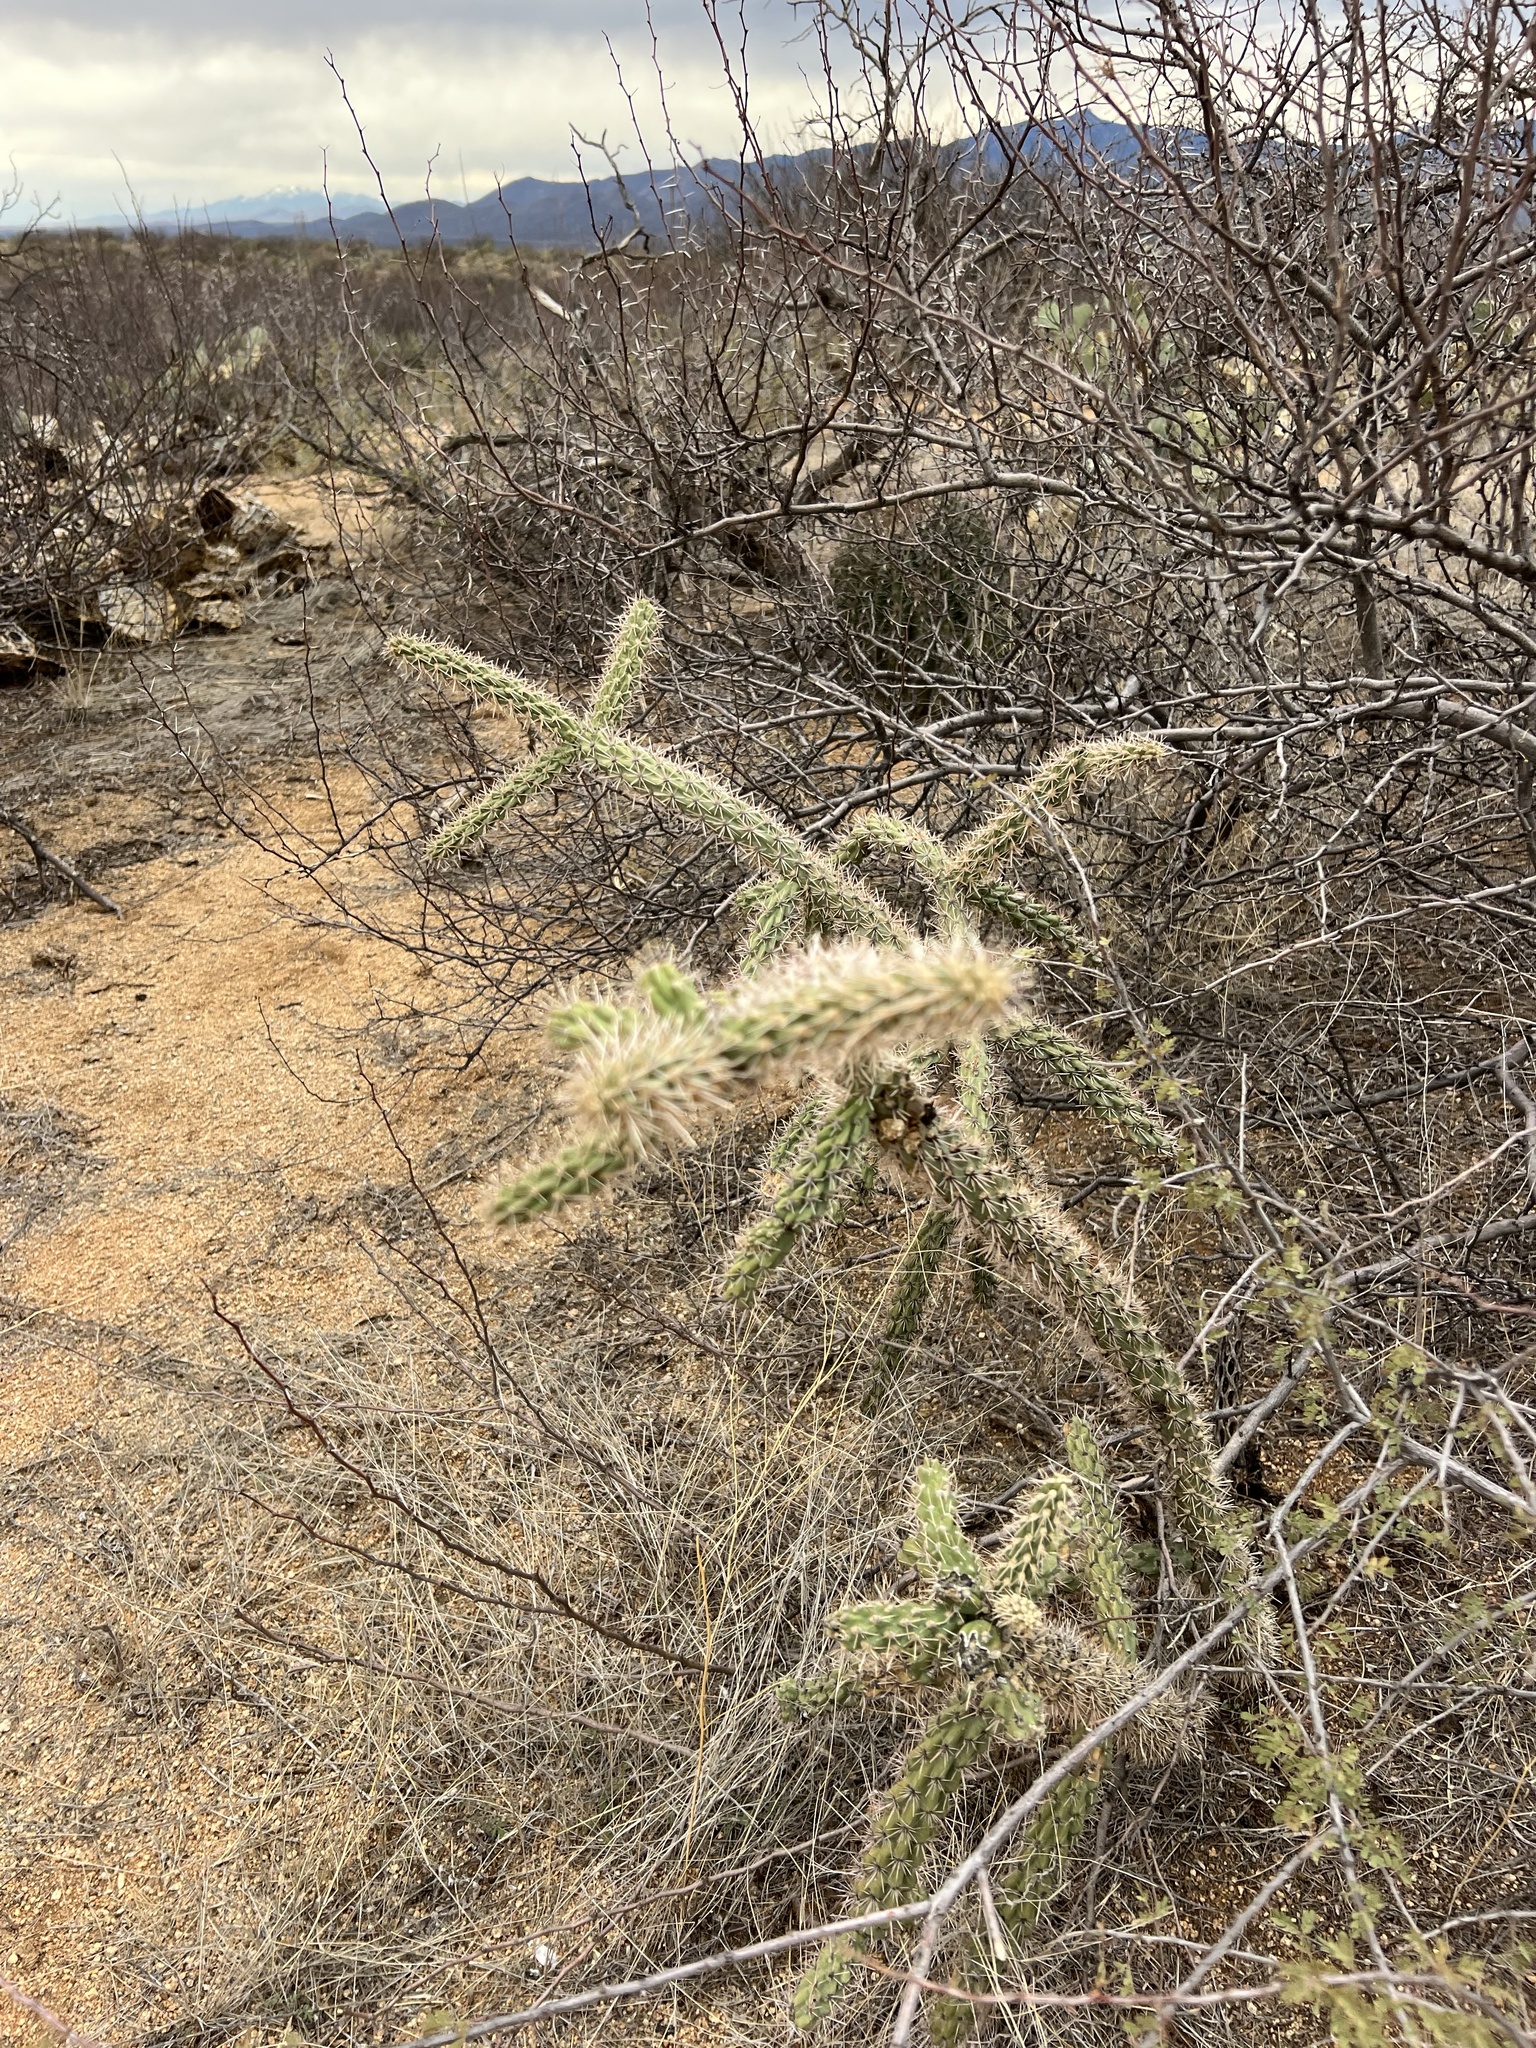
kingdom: Plantae
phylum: Tracheophyta
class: Magnoliopsida
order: Caryophyllales
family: Cactaceae
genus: Cylindropuntia
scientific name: Cylindropuntia imbricata
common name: Candelabrum cactus
